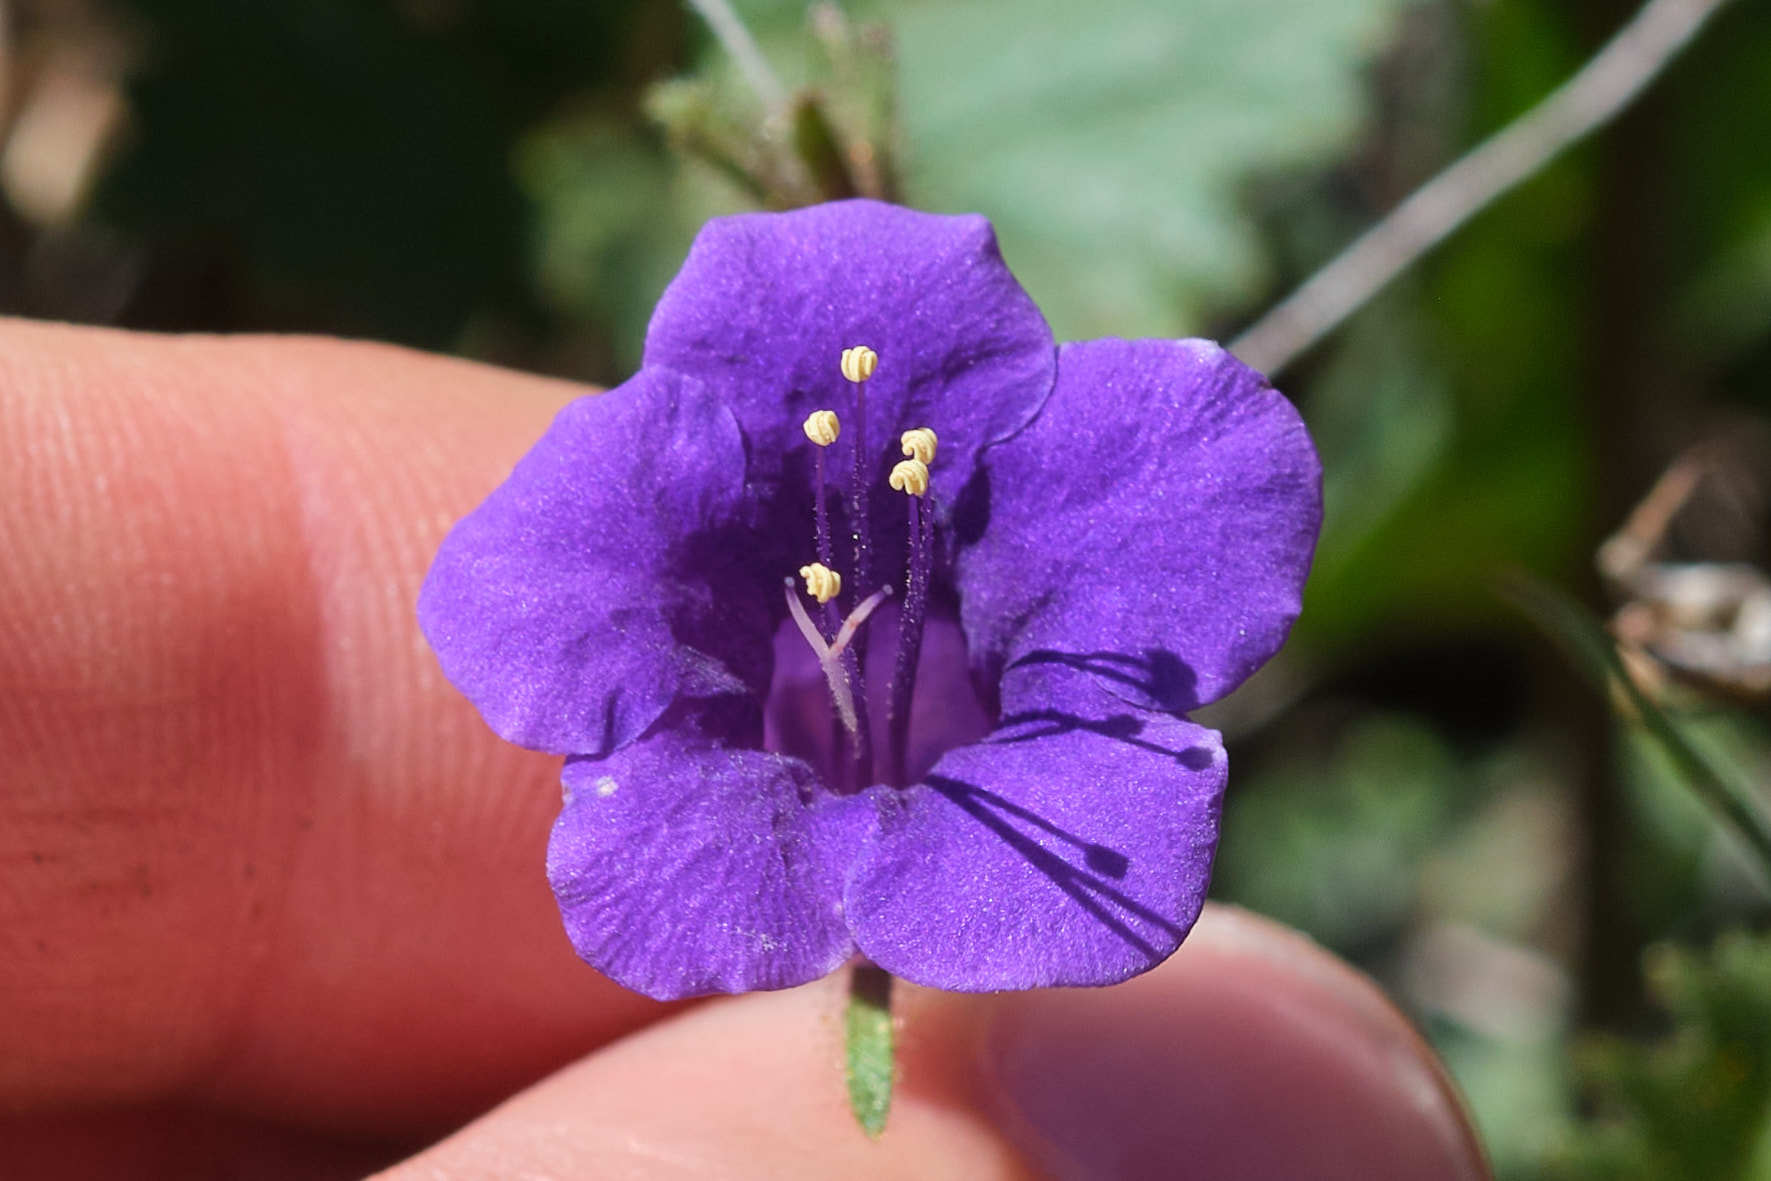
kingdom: Plantae
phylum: Tracheophyta
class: Magnoliopsida
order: Boraginales
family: Hydrophyllaceae
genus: Phacelia
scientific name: Phacelia minor
